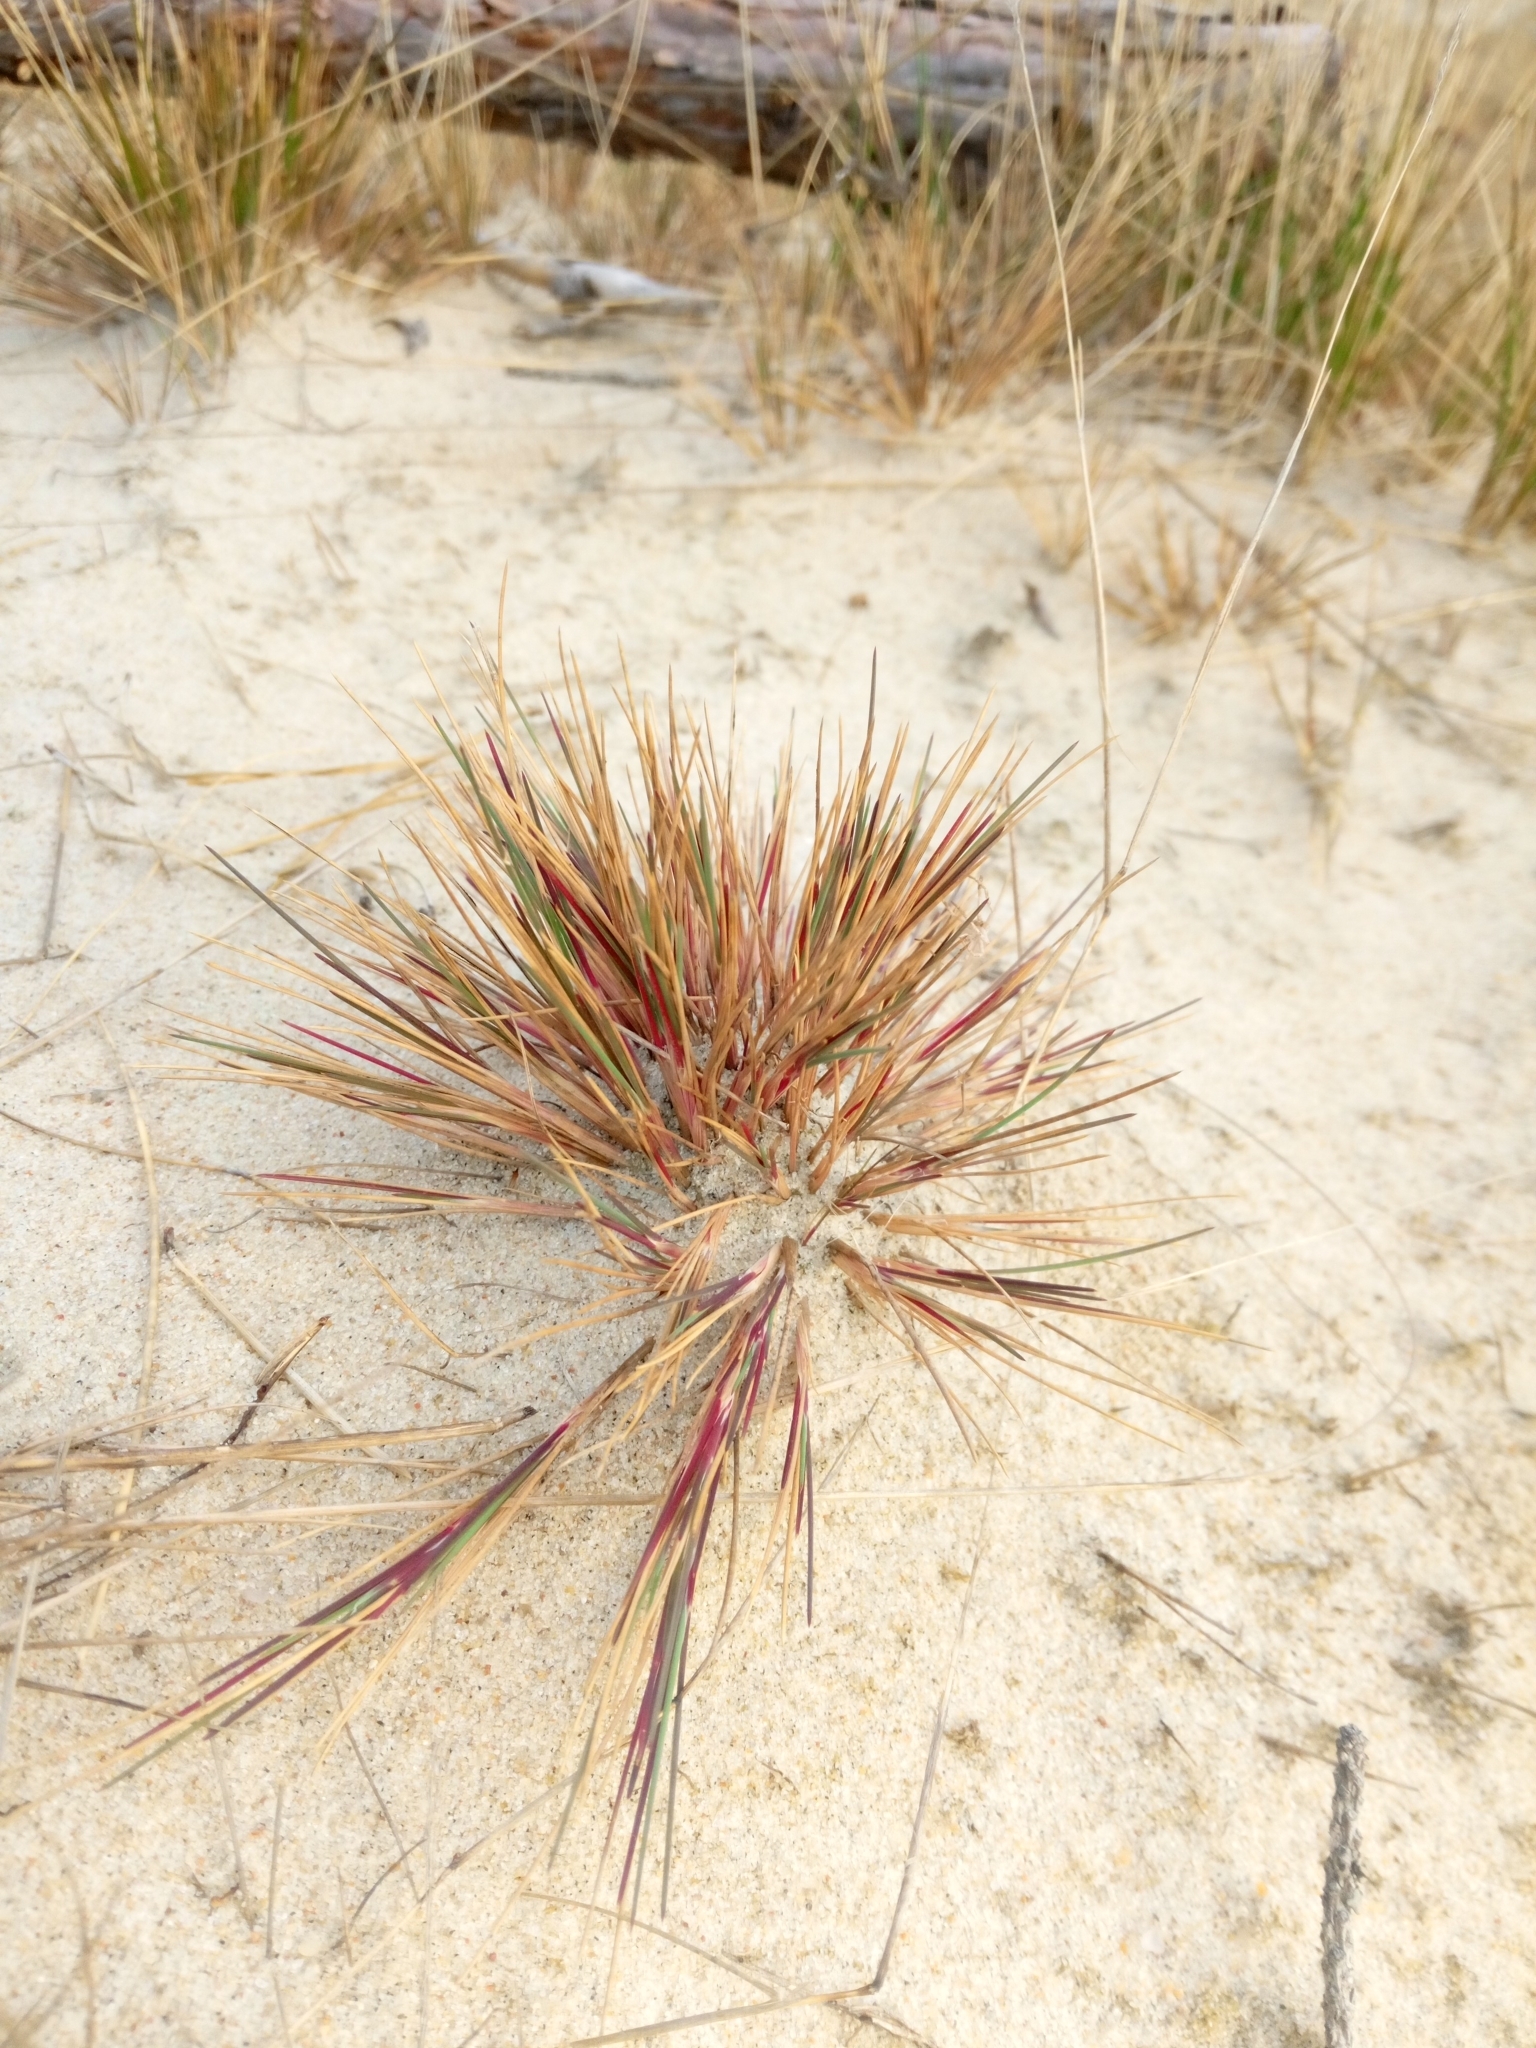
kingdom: Plantae
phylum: Tracheophyta
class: Liliopsida
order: Poales
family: Poaceae
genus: Corynephorus
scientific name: Corynephorus canescens
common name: Grey hair-grass
